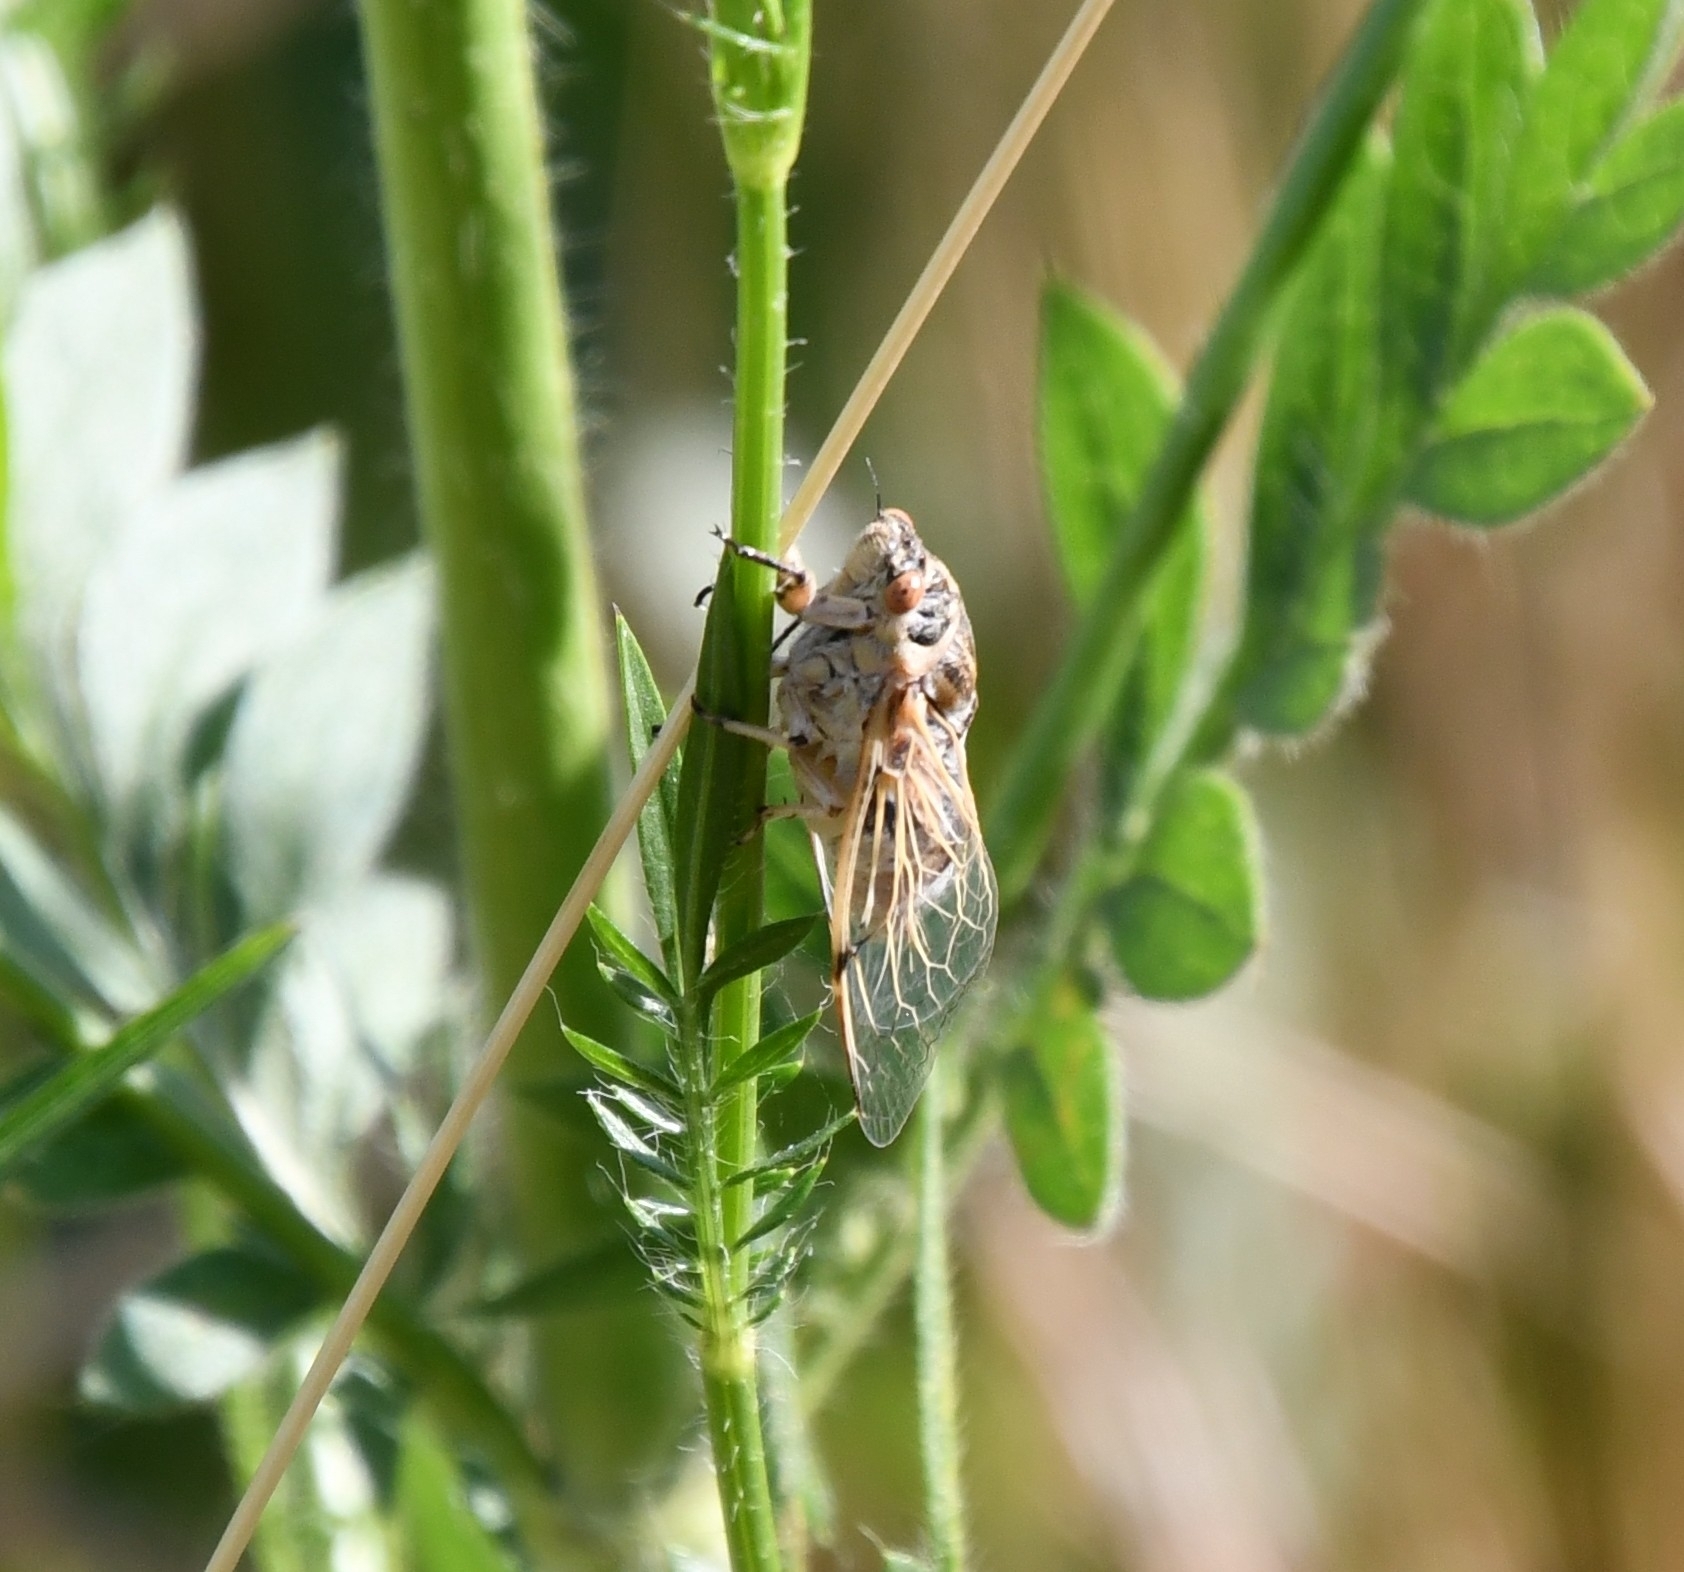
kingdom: Animalia
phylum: Arthropoda
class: Insecta
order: Hemiptera
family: Cicadidae
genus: Cicadatra
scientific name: Cicadatra platyptera
